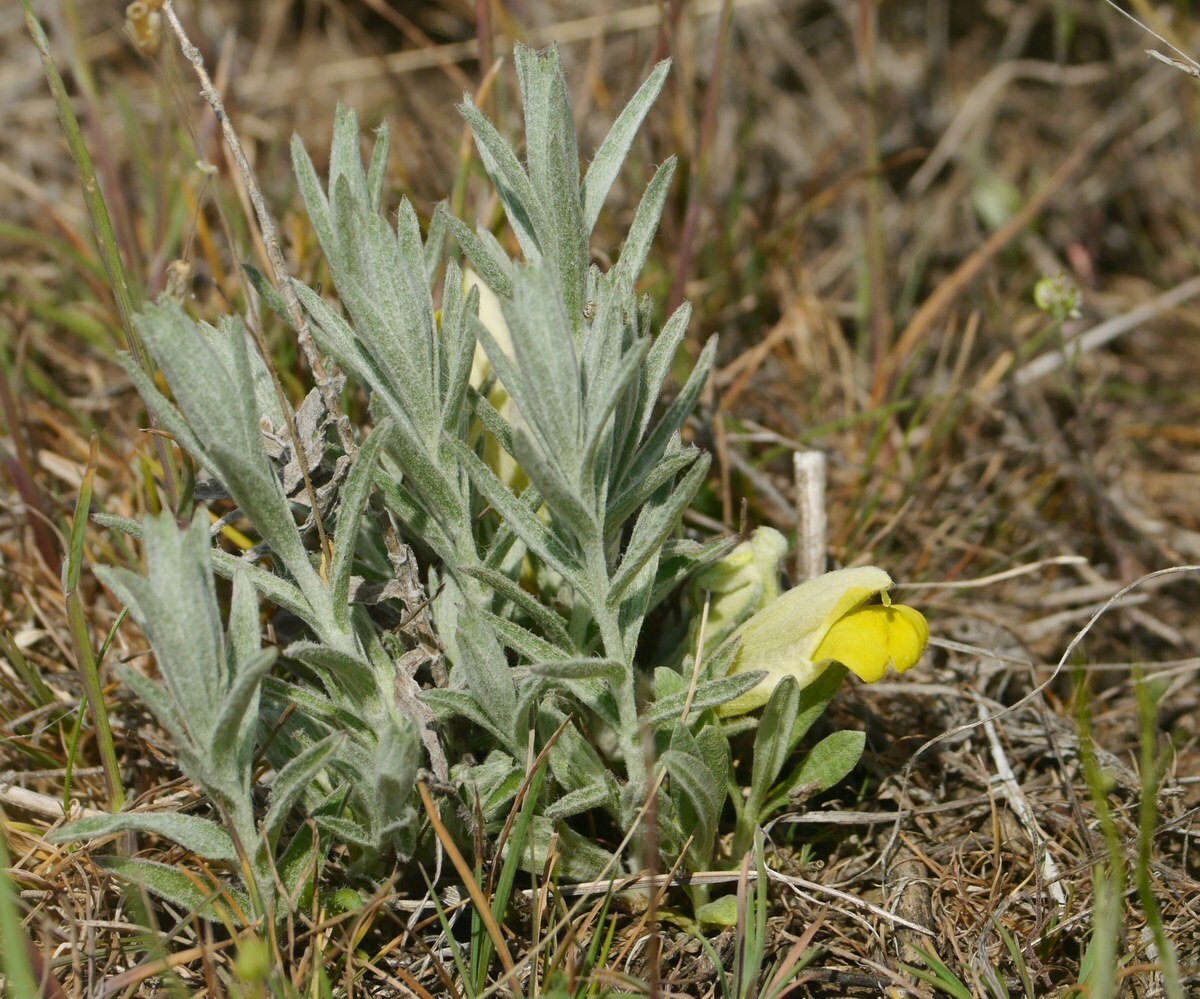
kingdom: Plantae
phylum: Tracheophyta
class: Magnoliopsida
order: Lamiales
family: Orobanchaceae
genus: Cymbaria
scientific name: Cymbaria borysthenica
